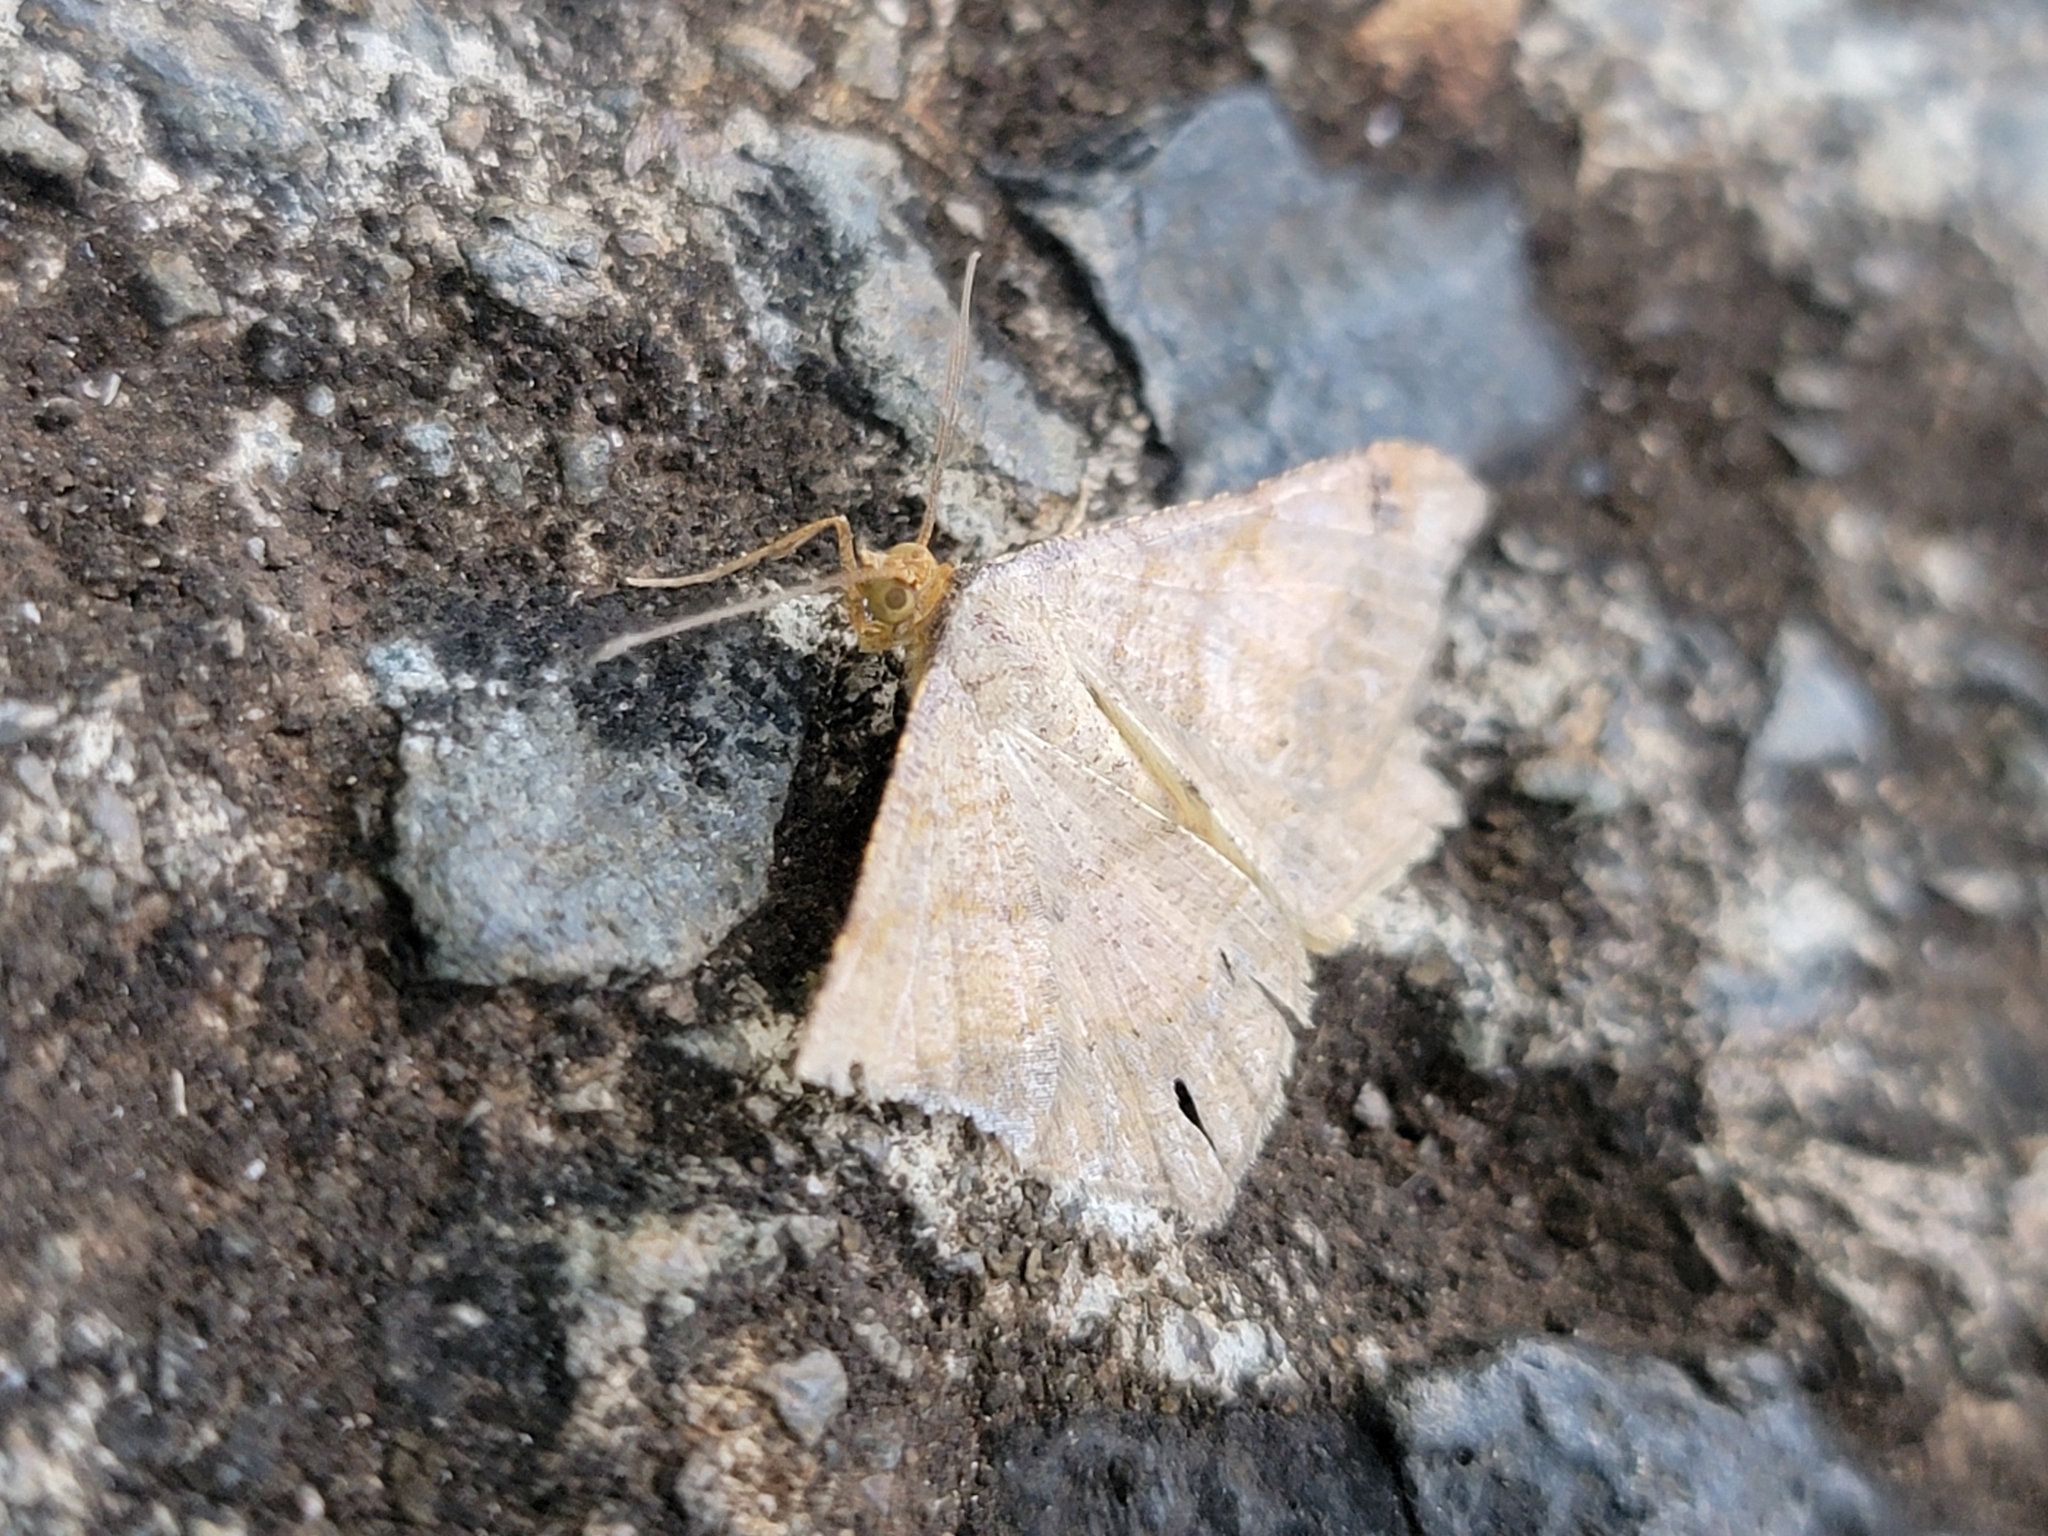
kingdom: Animalia
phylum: Arthropoda
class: Insecta
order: Lepidoptera
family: Geometridae
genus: Macaria
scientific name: Macaria abydata
